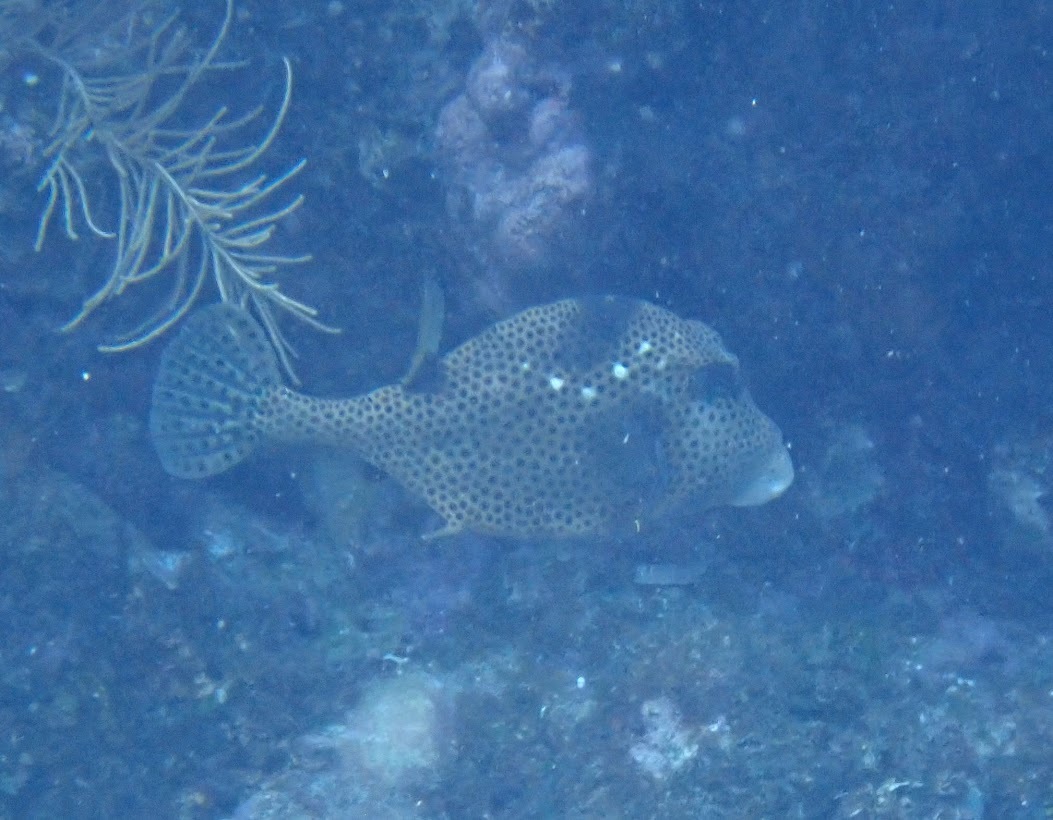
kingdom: Animalia
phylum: Chordata
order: Tetraodontiformes
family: Ostraciidae
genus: Lactophrys
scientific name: Lactophrys bicaudalis
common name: Spotted trunkfish
